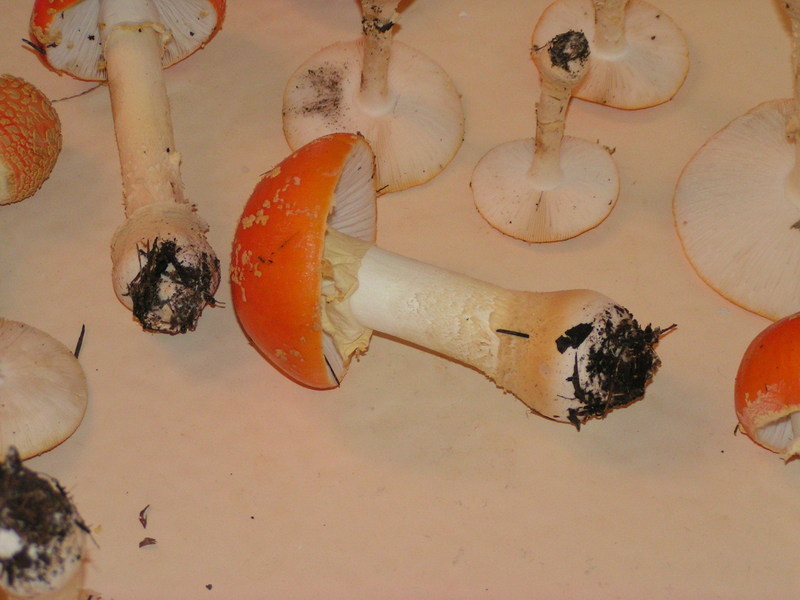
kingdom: Fungi
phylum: Basidiomycota
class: Agaricomycetes
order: Agaricales
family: Amanitaceae
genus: Amanita
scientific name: Amanita persicina
